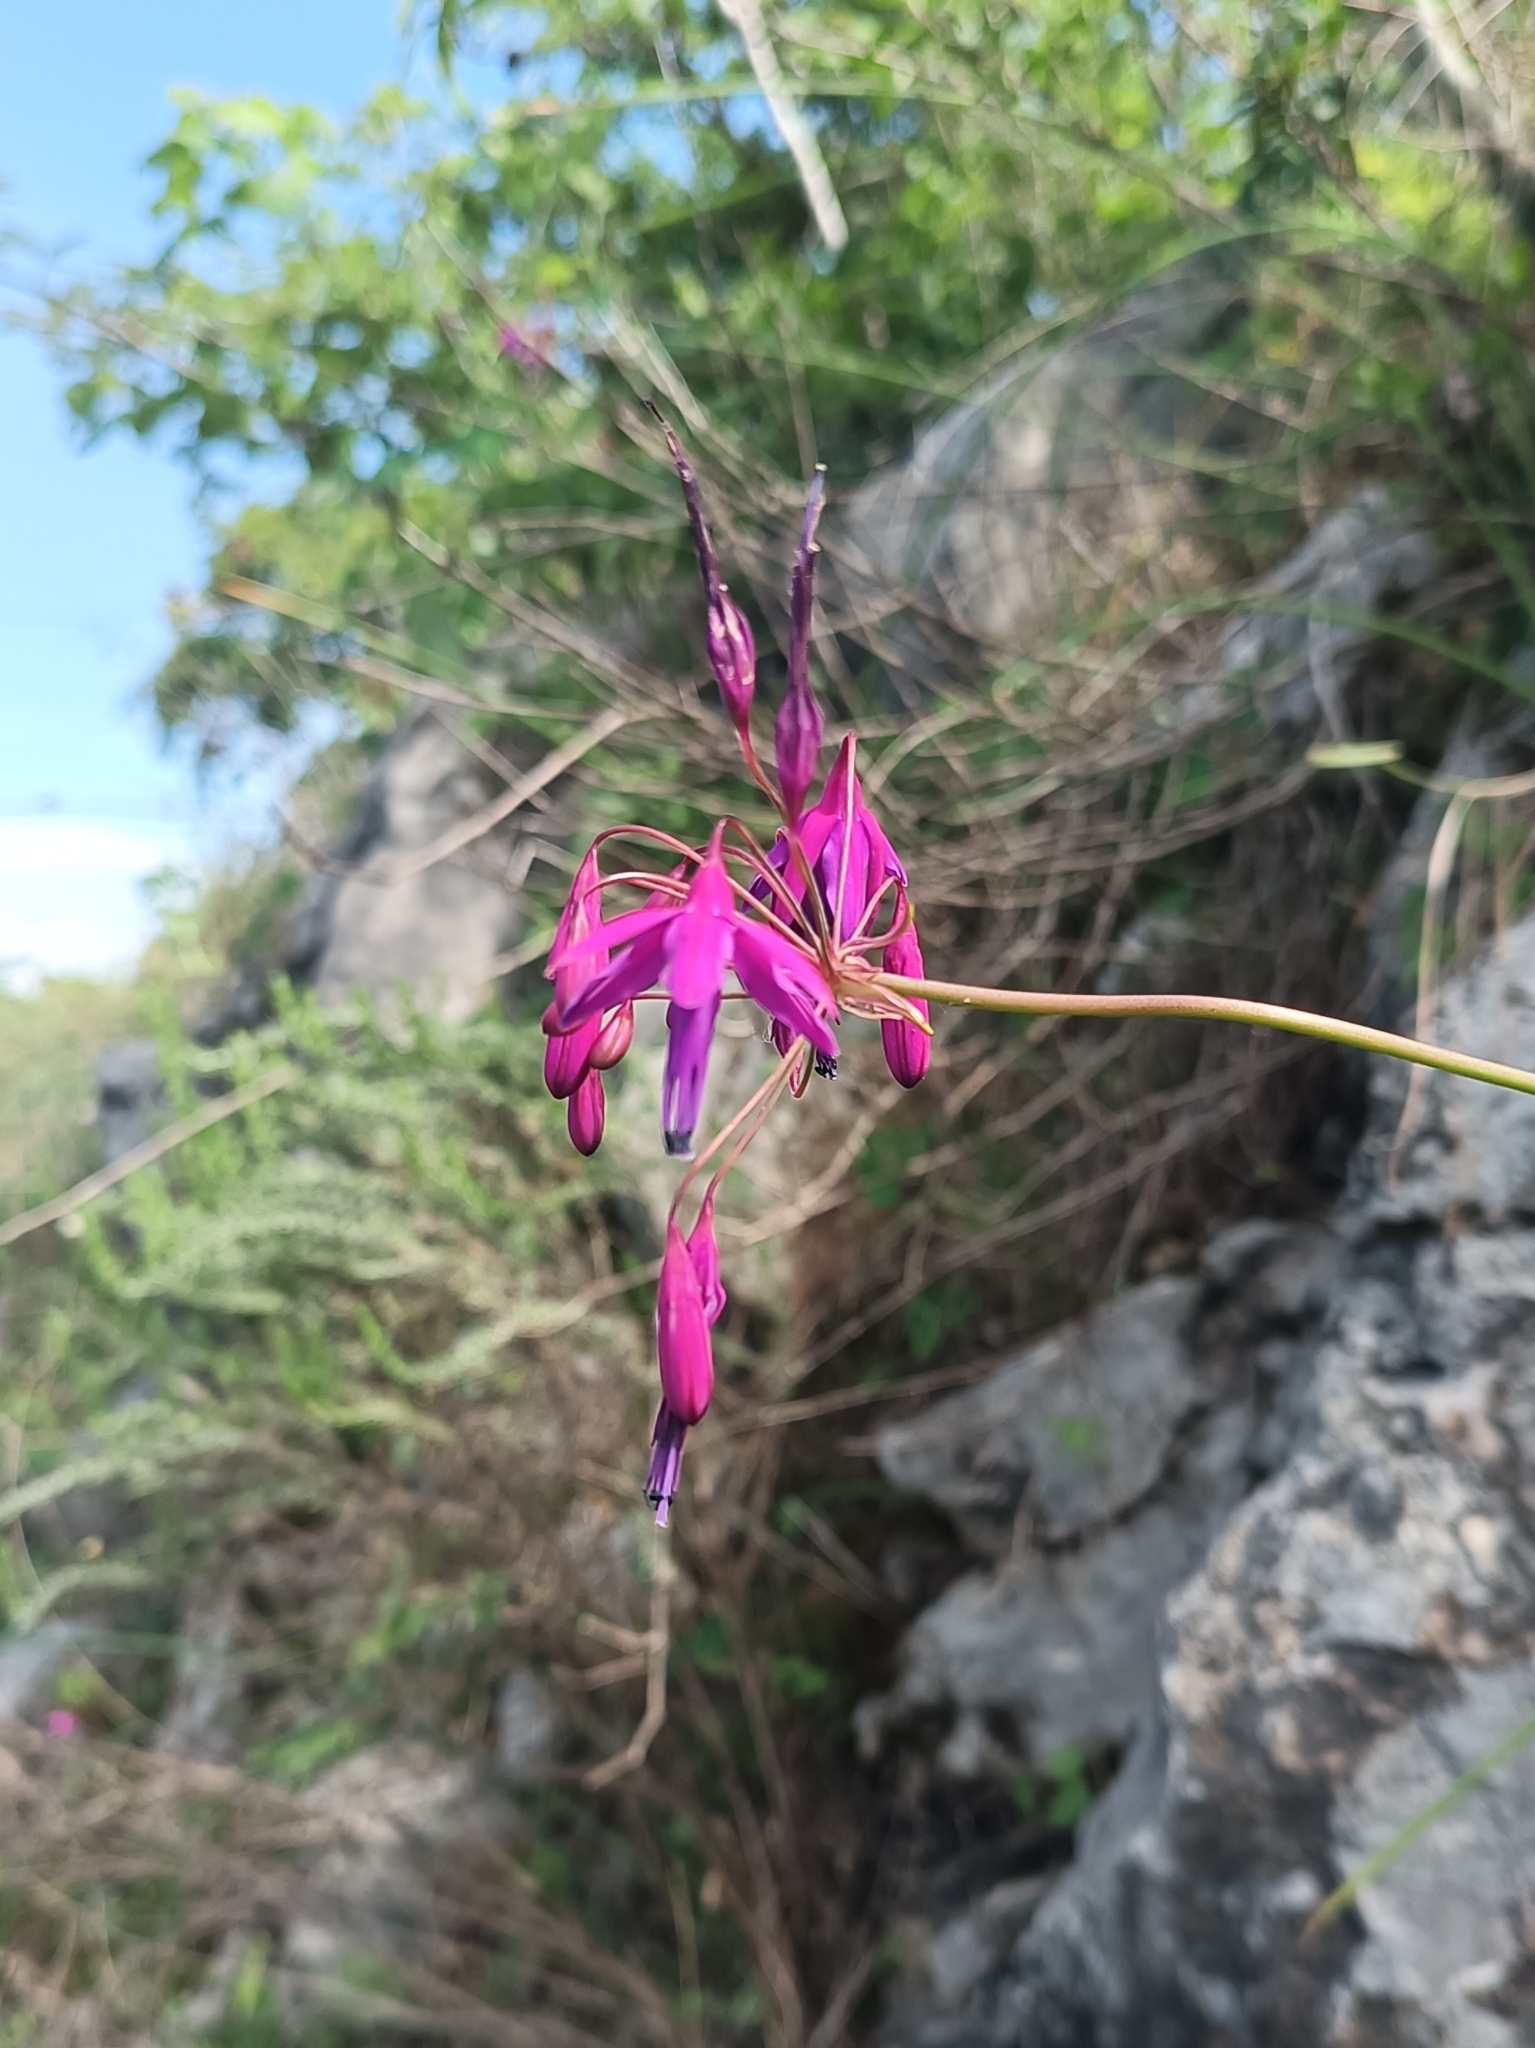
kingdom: Plantae
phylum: Tracheophyta
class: Liliopsida
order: Asparagales
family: Amaryllidaceae
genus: Bessera
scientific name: Bessera ramirezii
